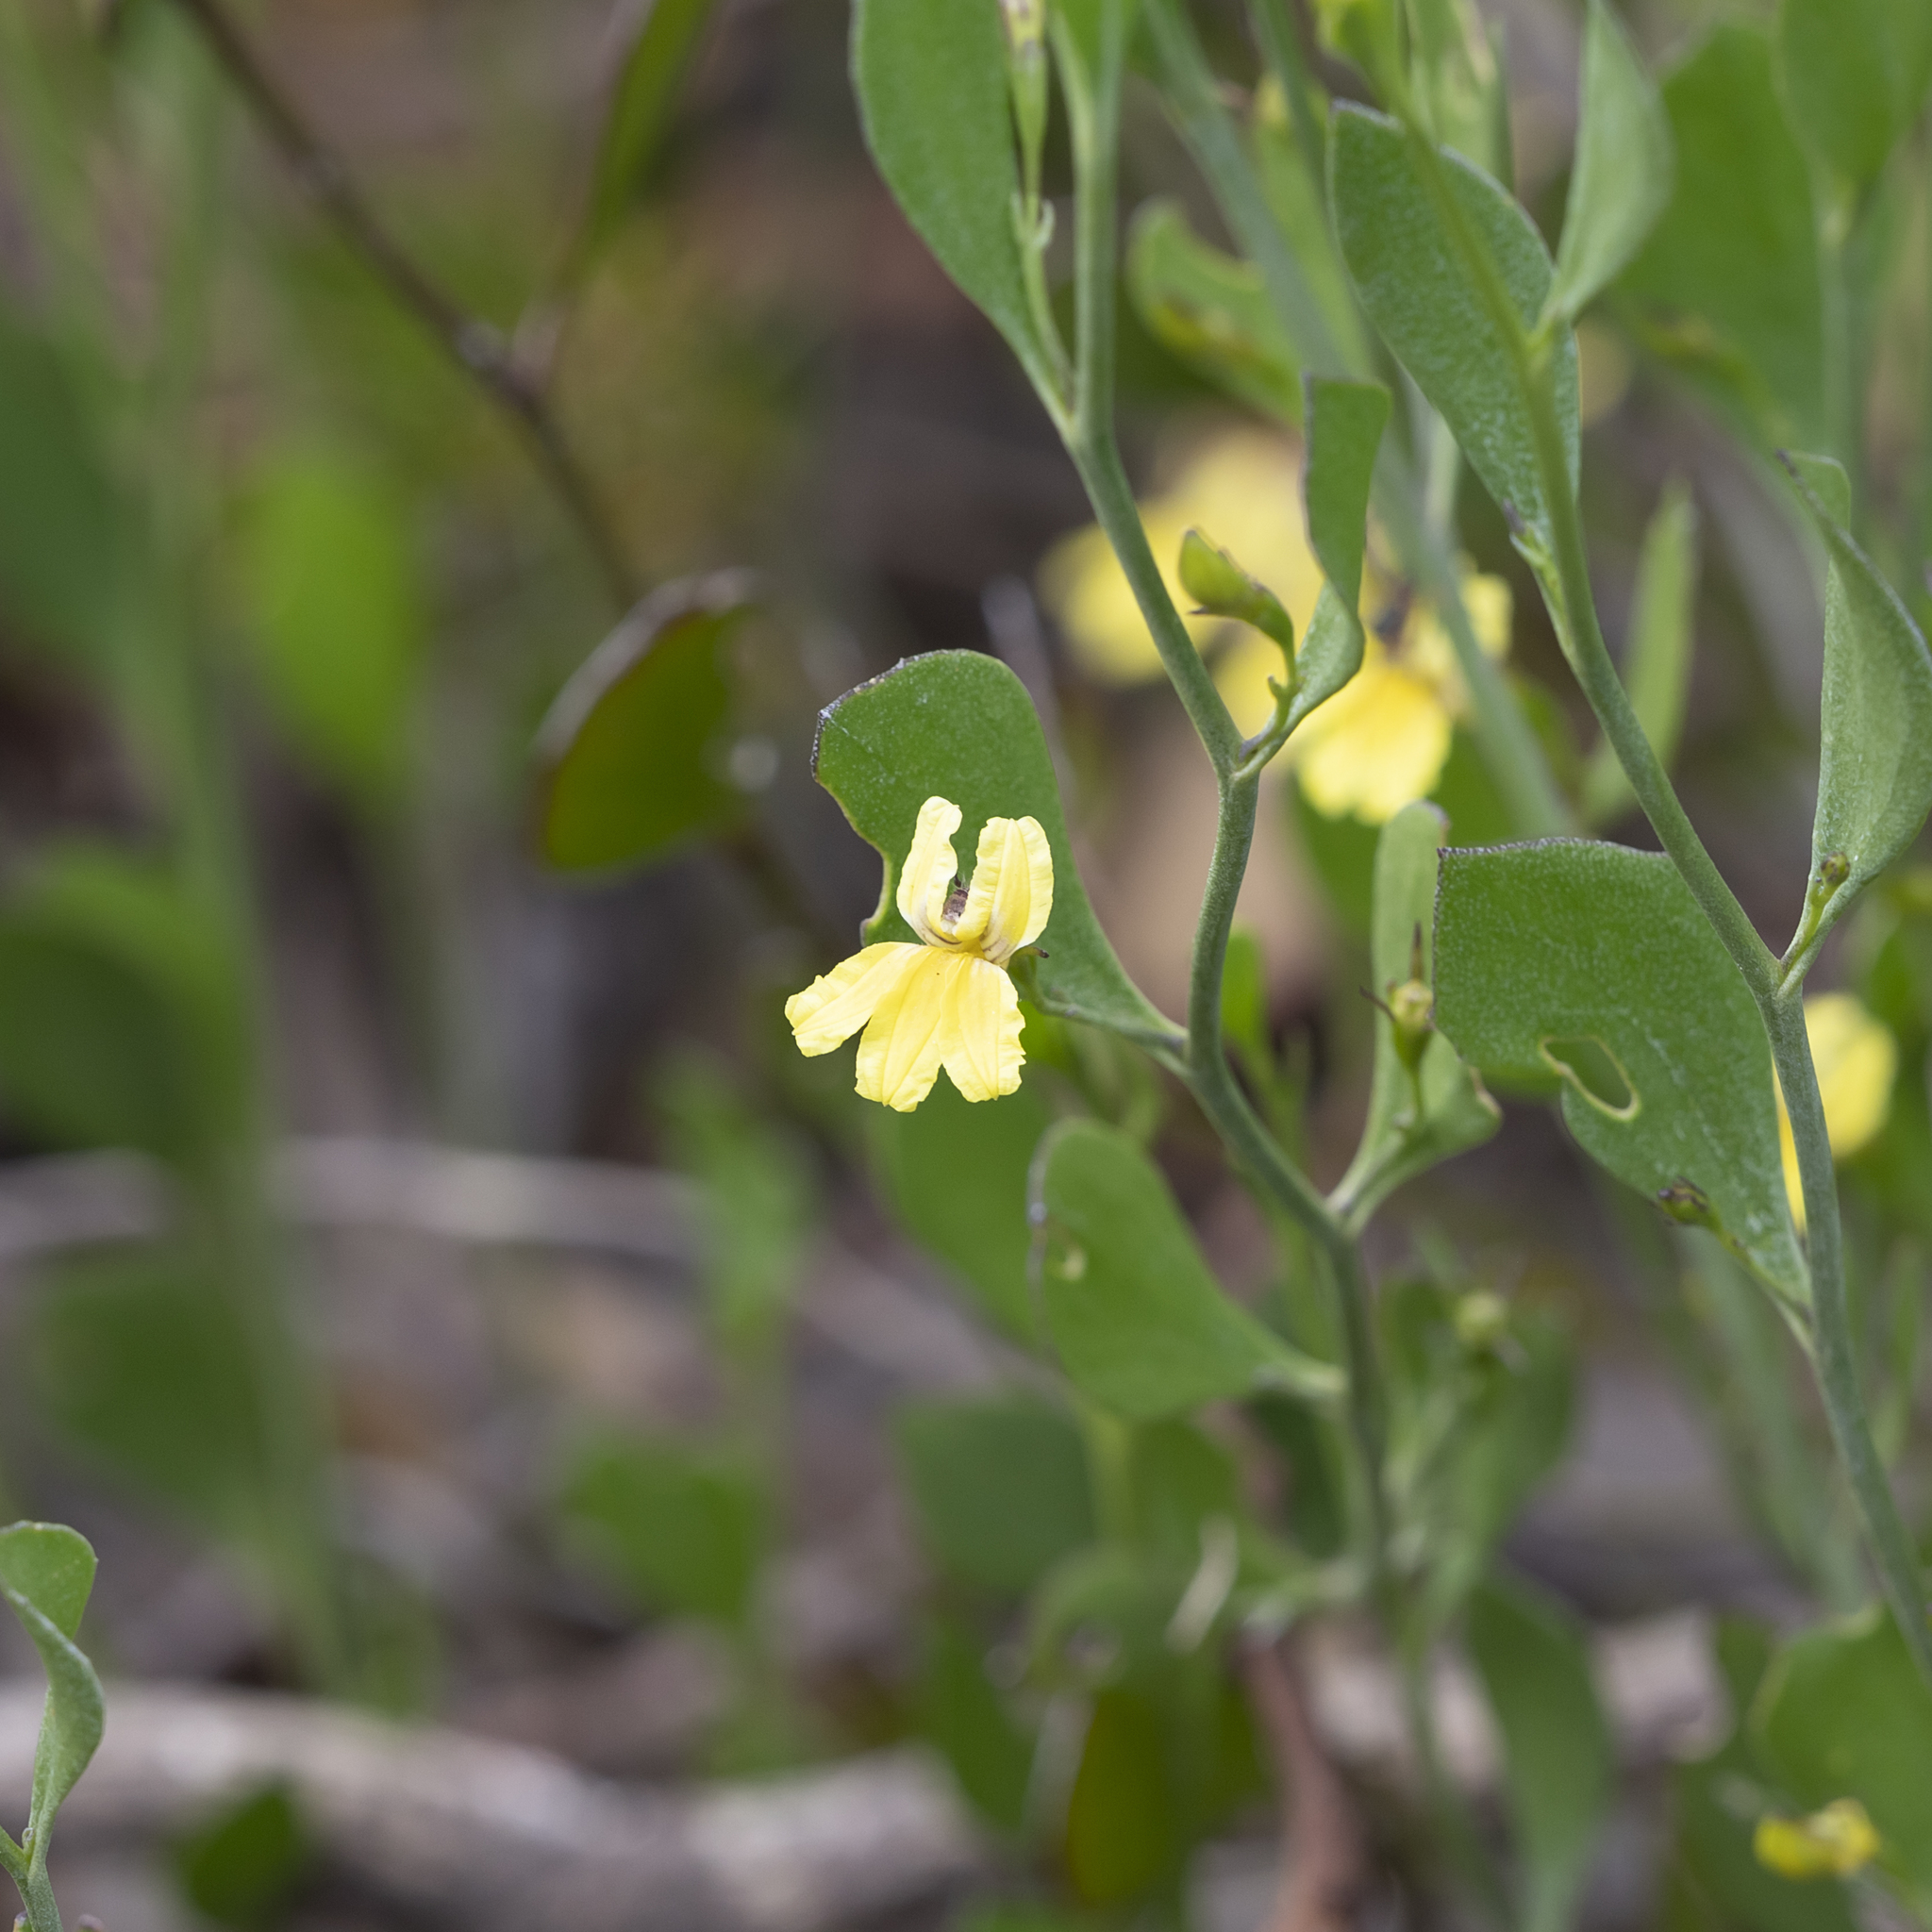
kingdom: Plantae
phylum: Tracheophyta
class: Magnoliopsida
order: Asterales
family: Goodeniaceae
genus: Goodenia
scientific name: Goodenia varia
